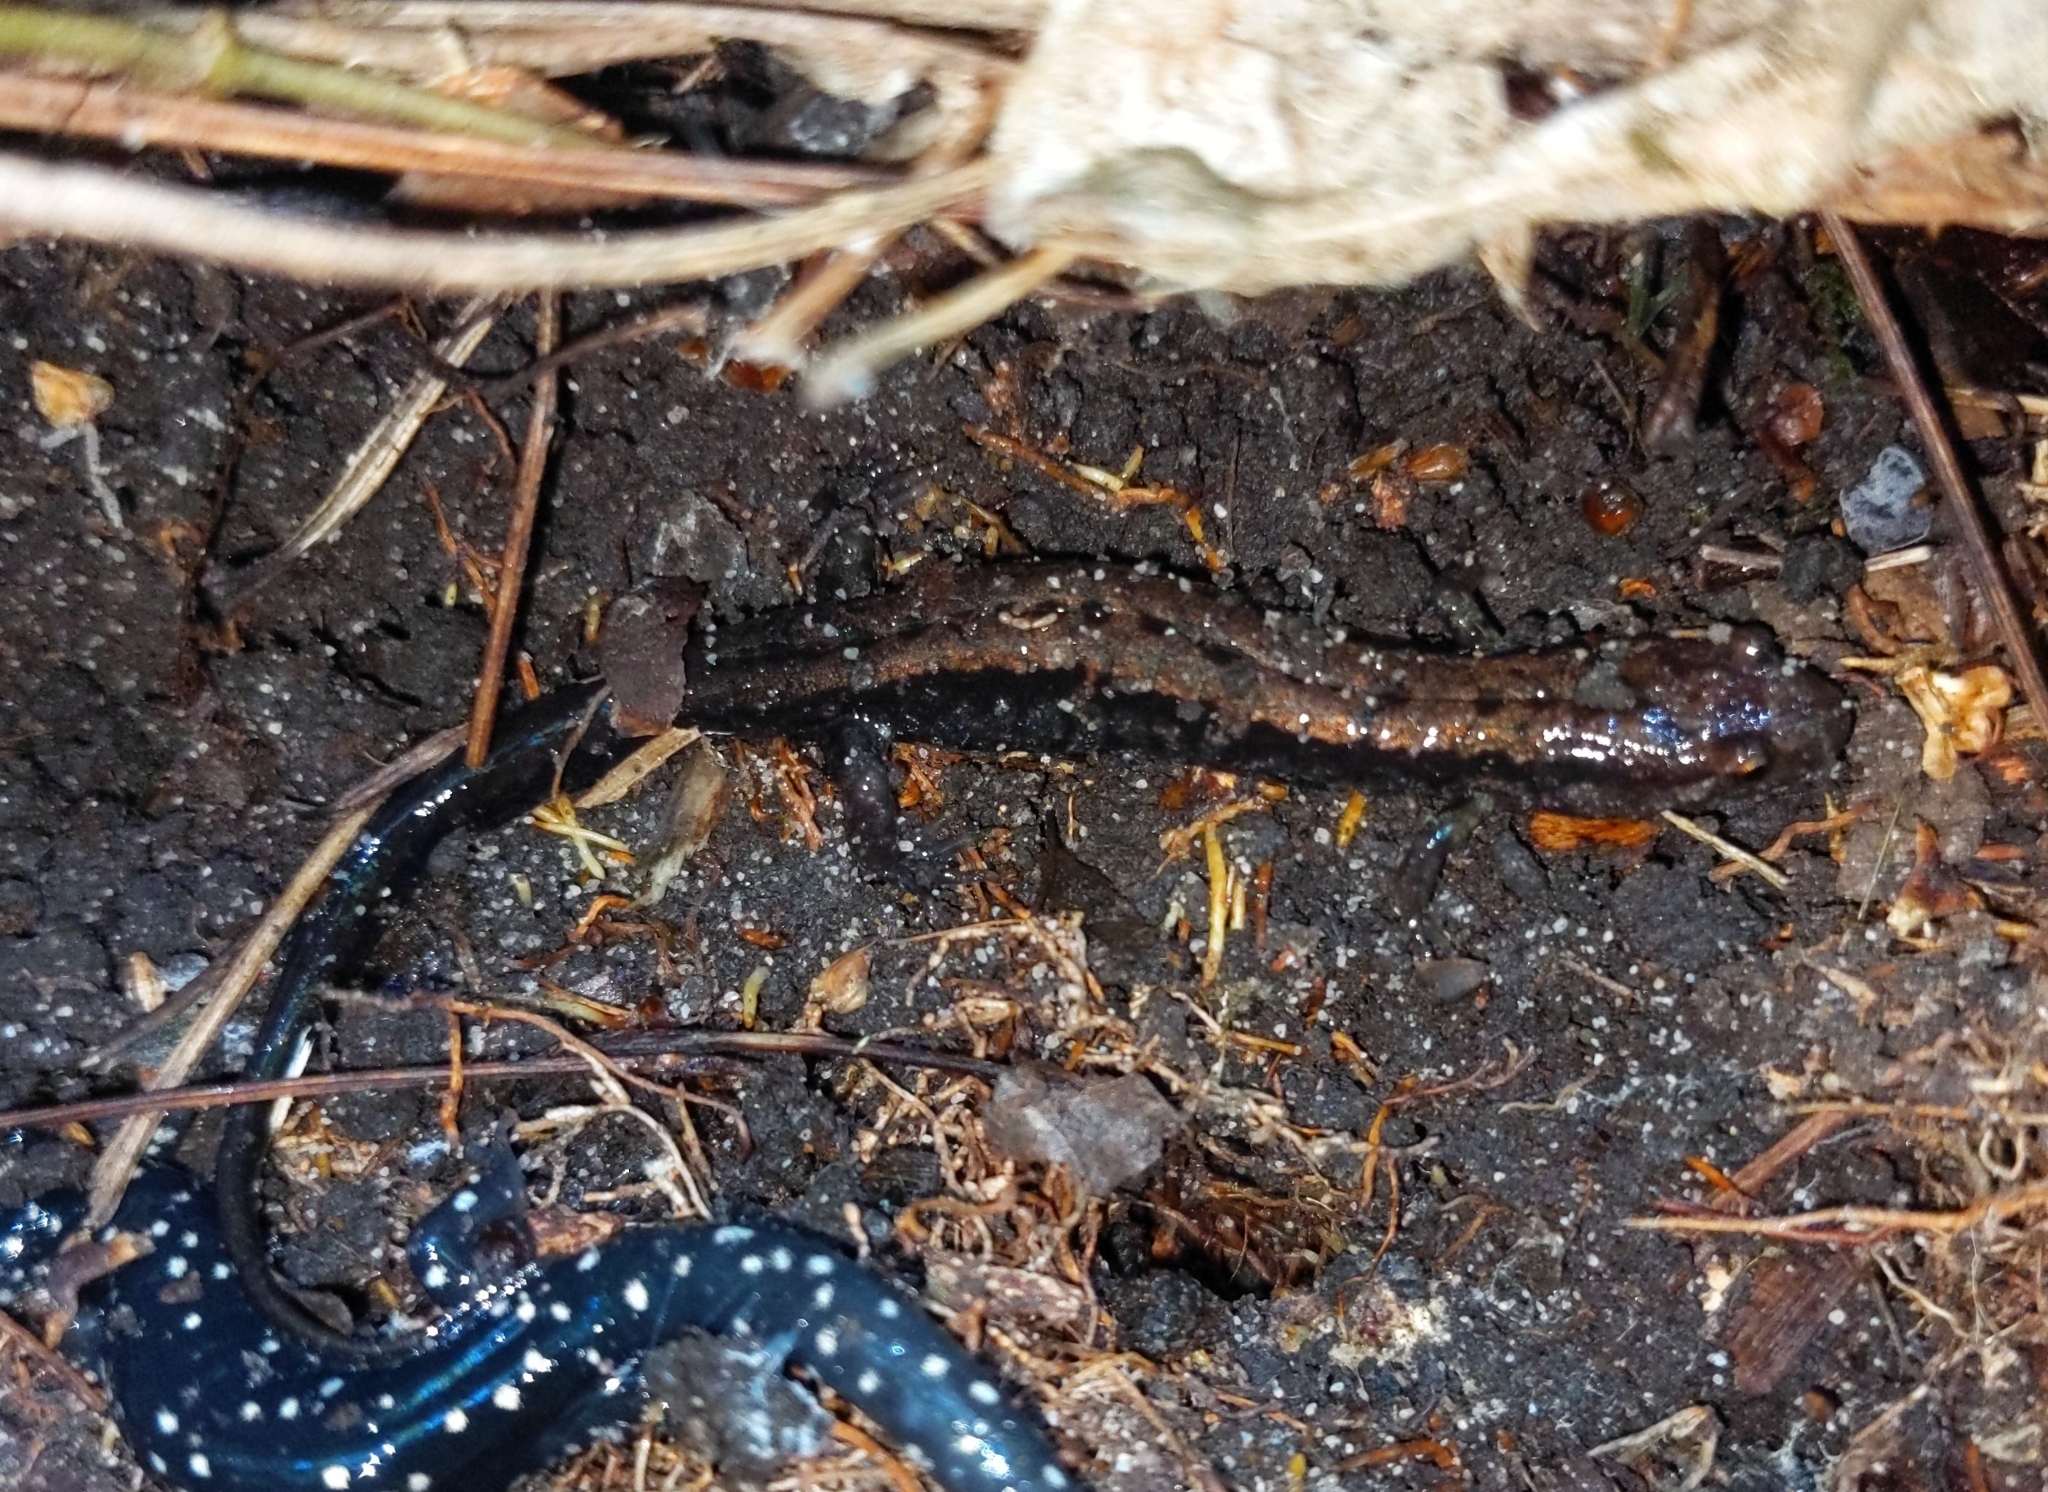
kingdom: Animalia
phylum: Chordata
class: Amphibia
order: Caudata
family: Plethodontidae
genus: Desmognathus
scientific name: Desmognathus ochrophaeus
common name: Allegheny mountain dusky salamander
